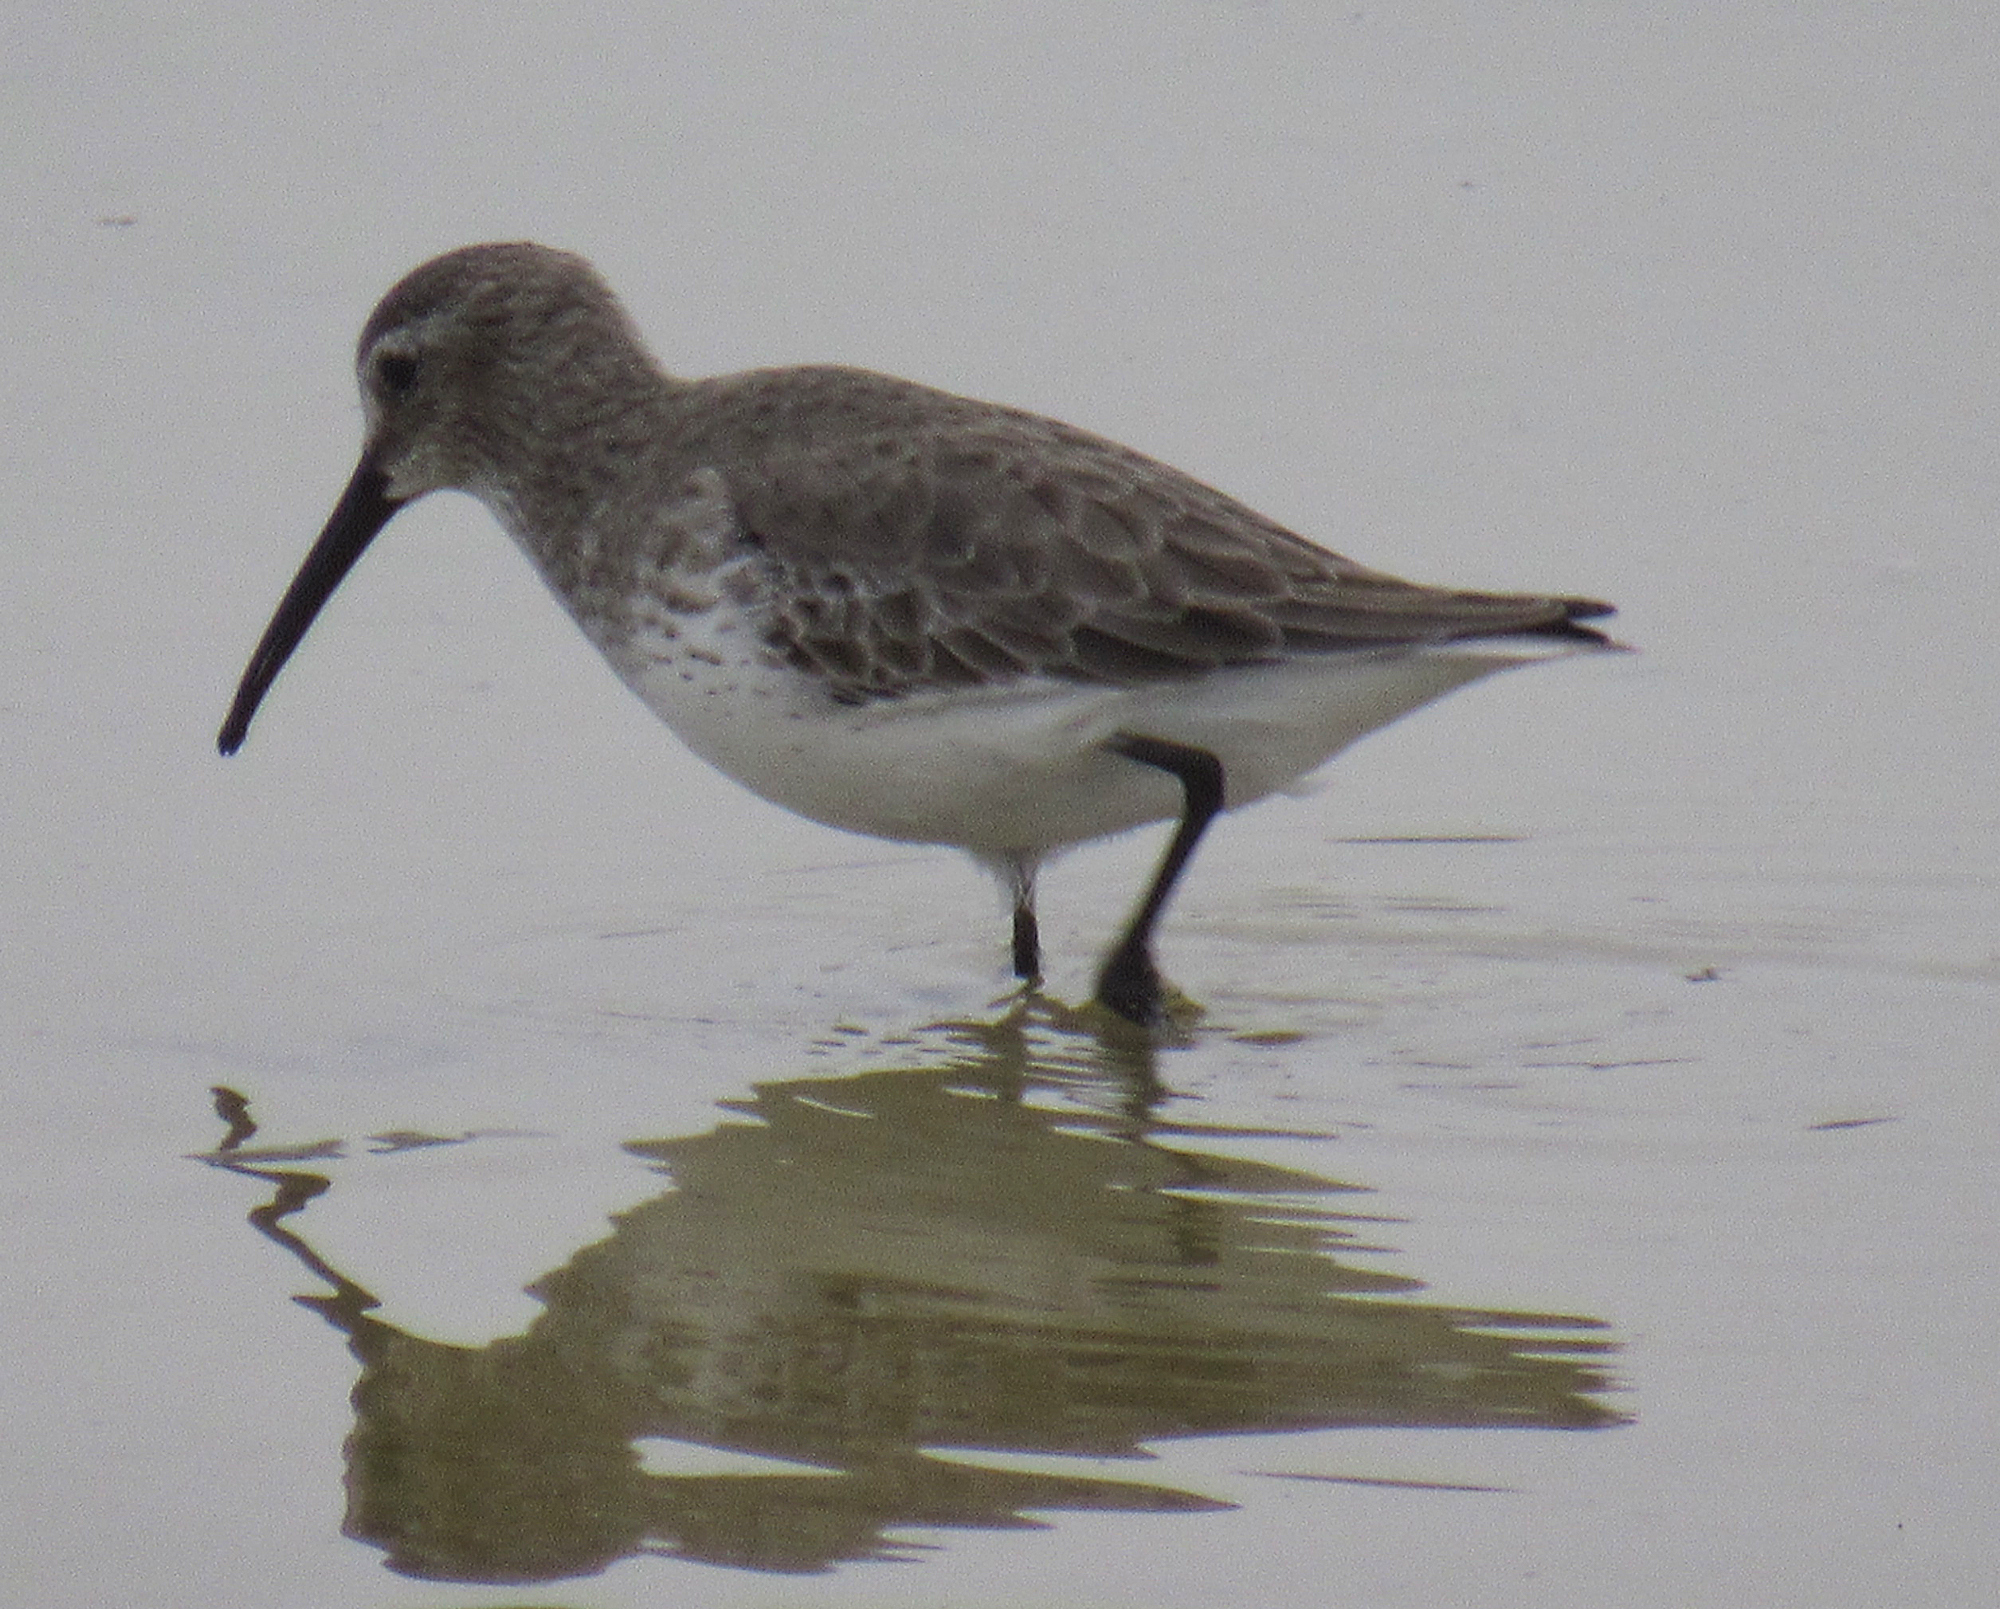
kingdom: Animalia
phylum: Chordata
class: Aves
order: Charadriiformes
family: Scolopacidae
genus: Calidris
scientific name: Calidris alpina
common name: Dunlin
